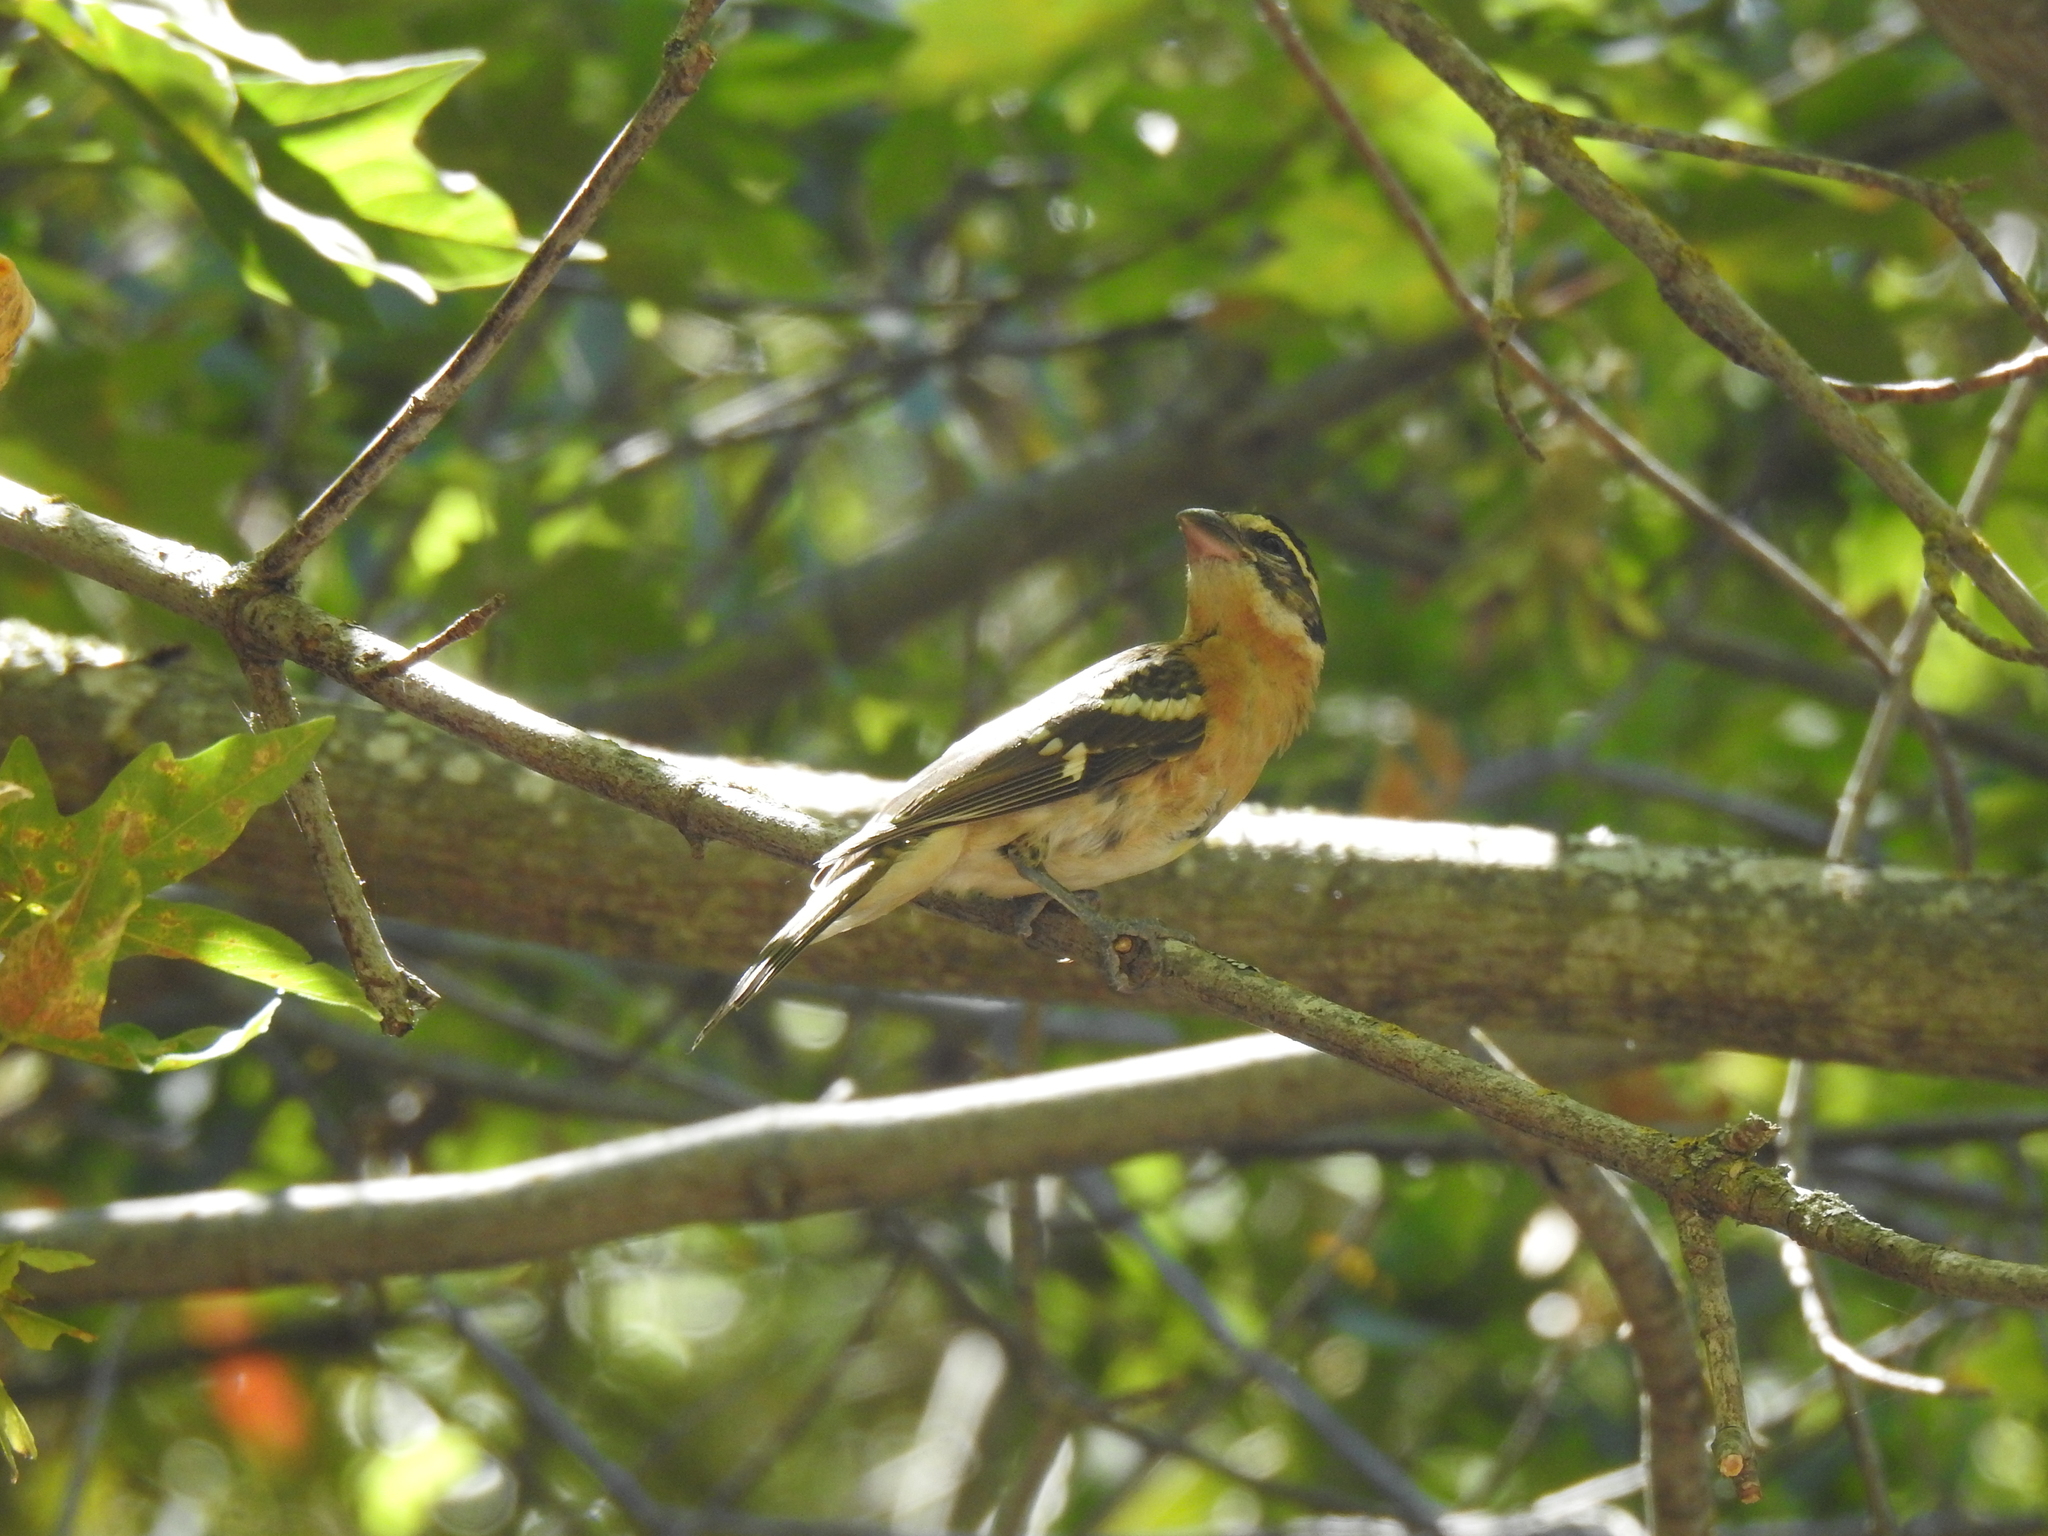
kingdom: Animalia
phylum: Chordata
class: Aves
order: Passeriformes
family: Cardinalidae
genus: Pheucticus
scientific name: Pheucticus melanocephalus
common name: Black-headed grosbeak
